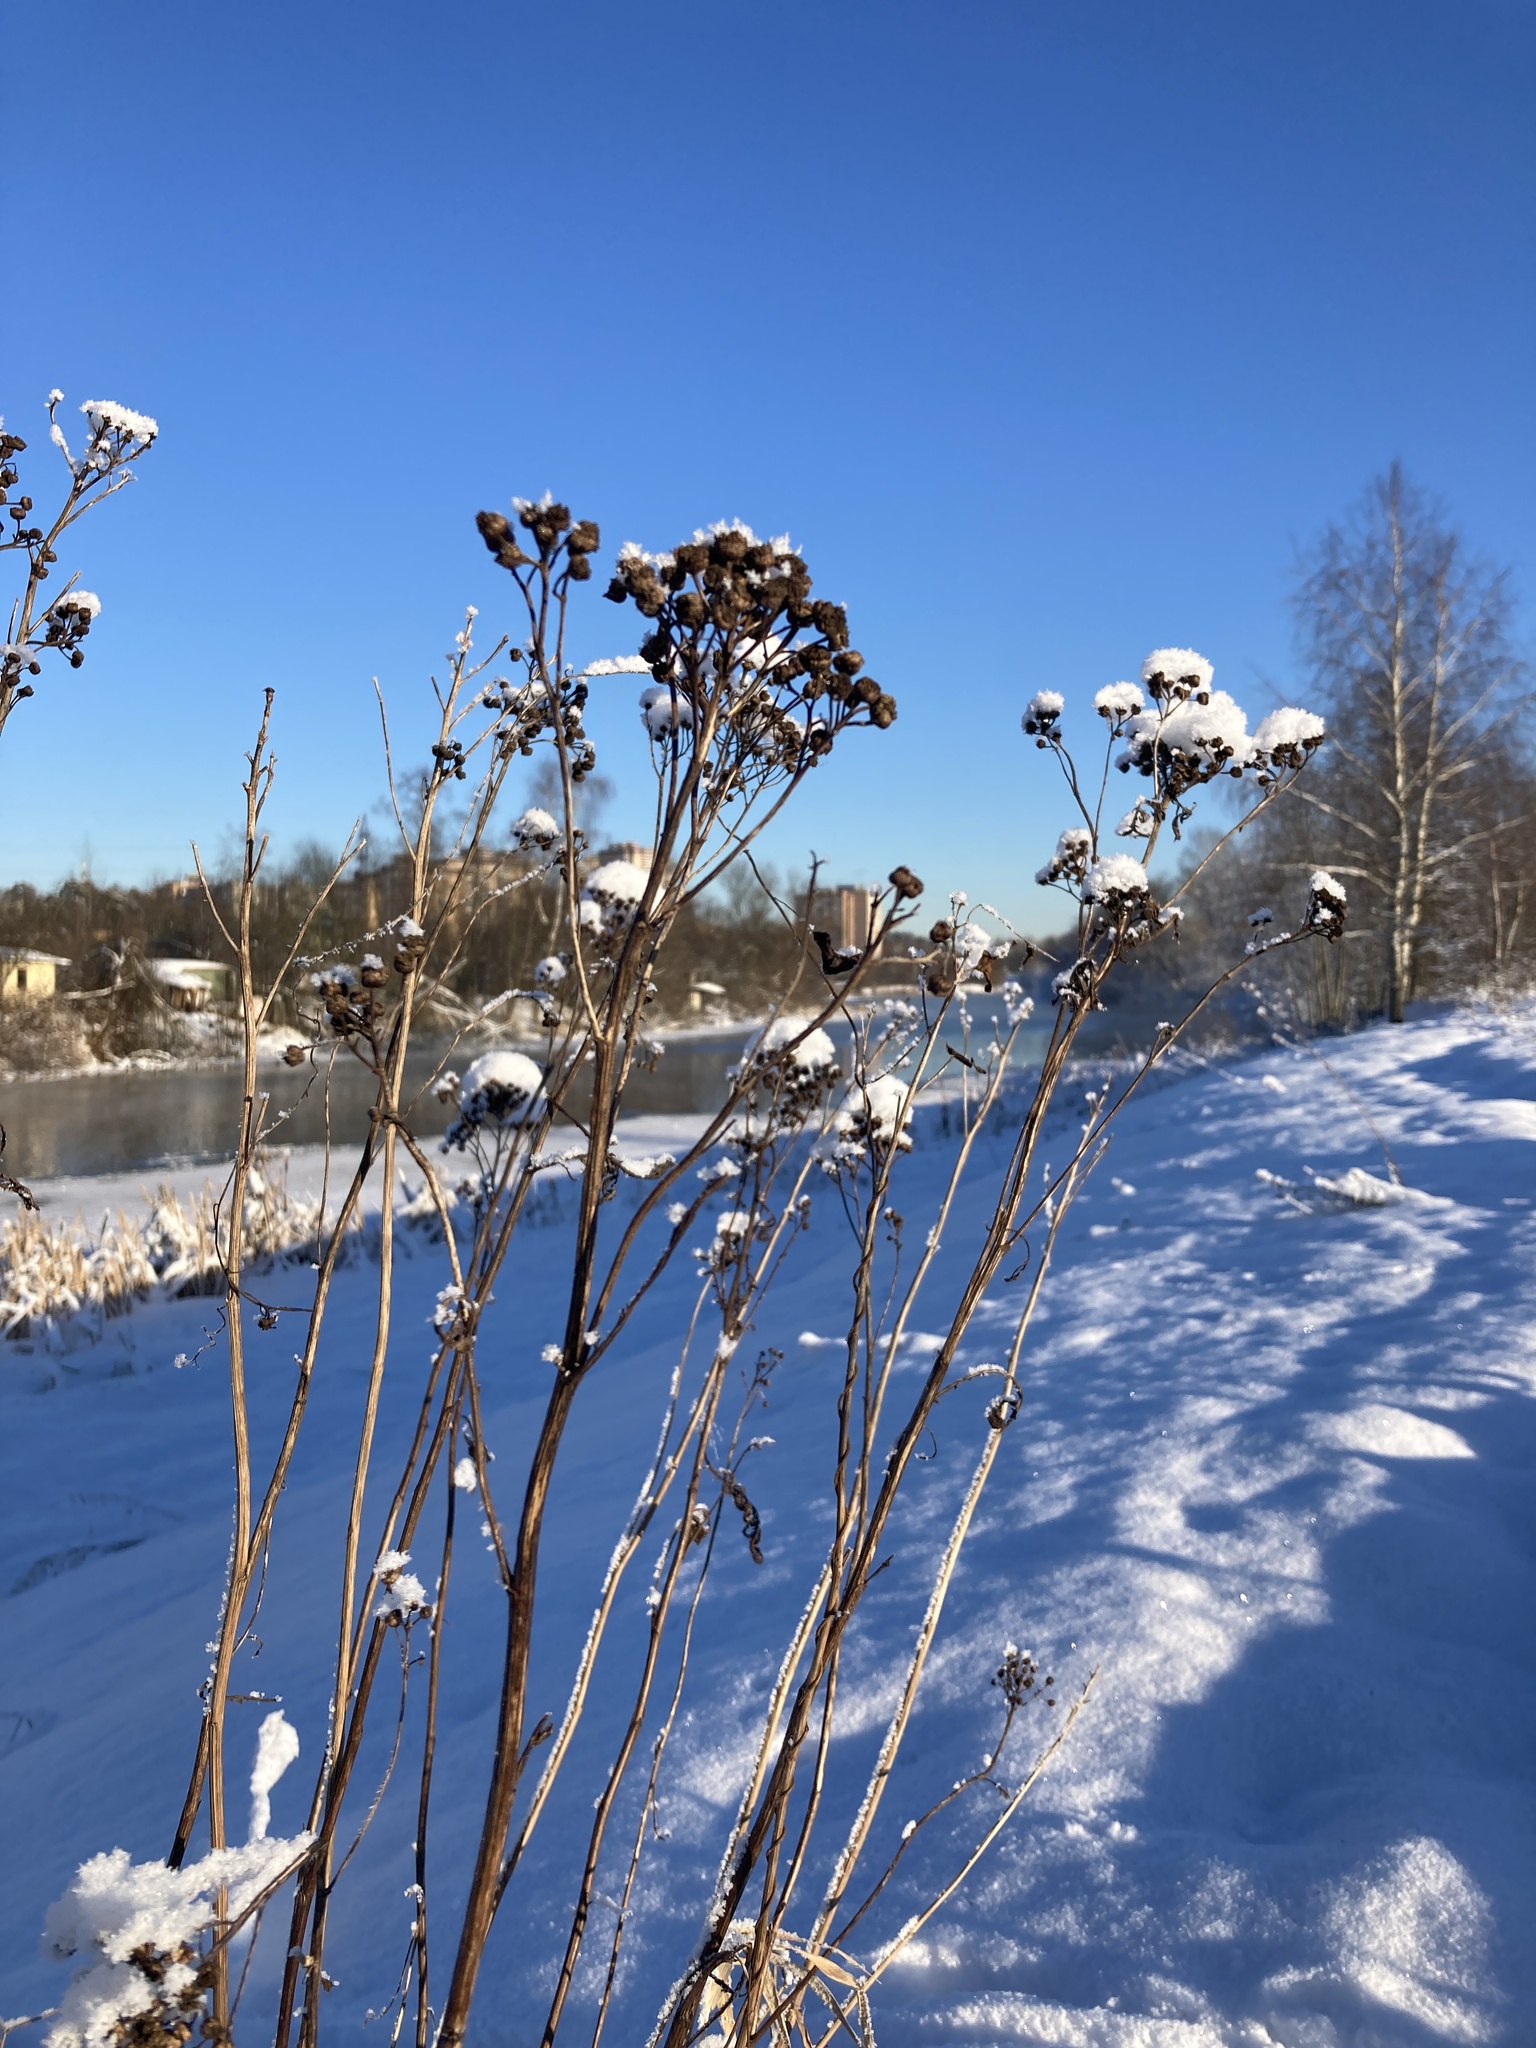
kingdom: Plantae
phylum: Tracheophyta
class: Magnoliopsida
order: Asterales
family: Asteraceae
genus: Tanacetum
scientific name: Tanacetum vulgare
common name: Common tansy
